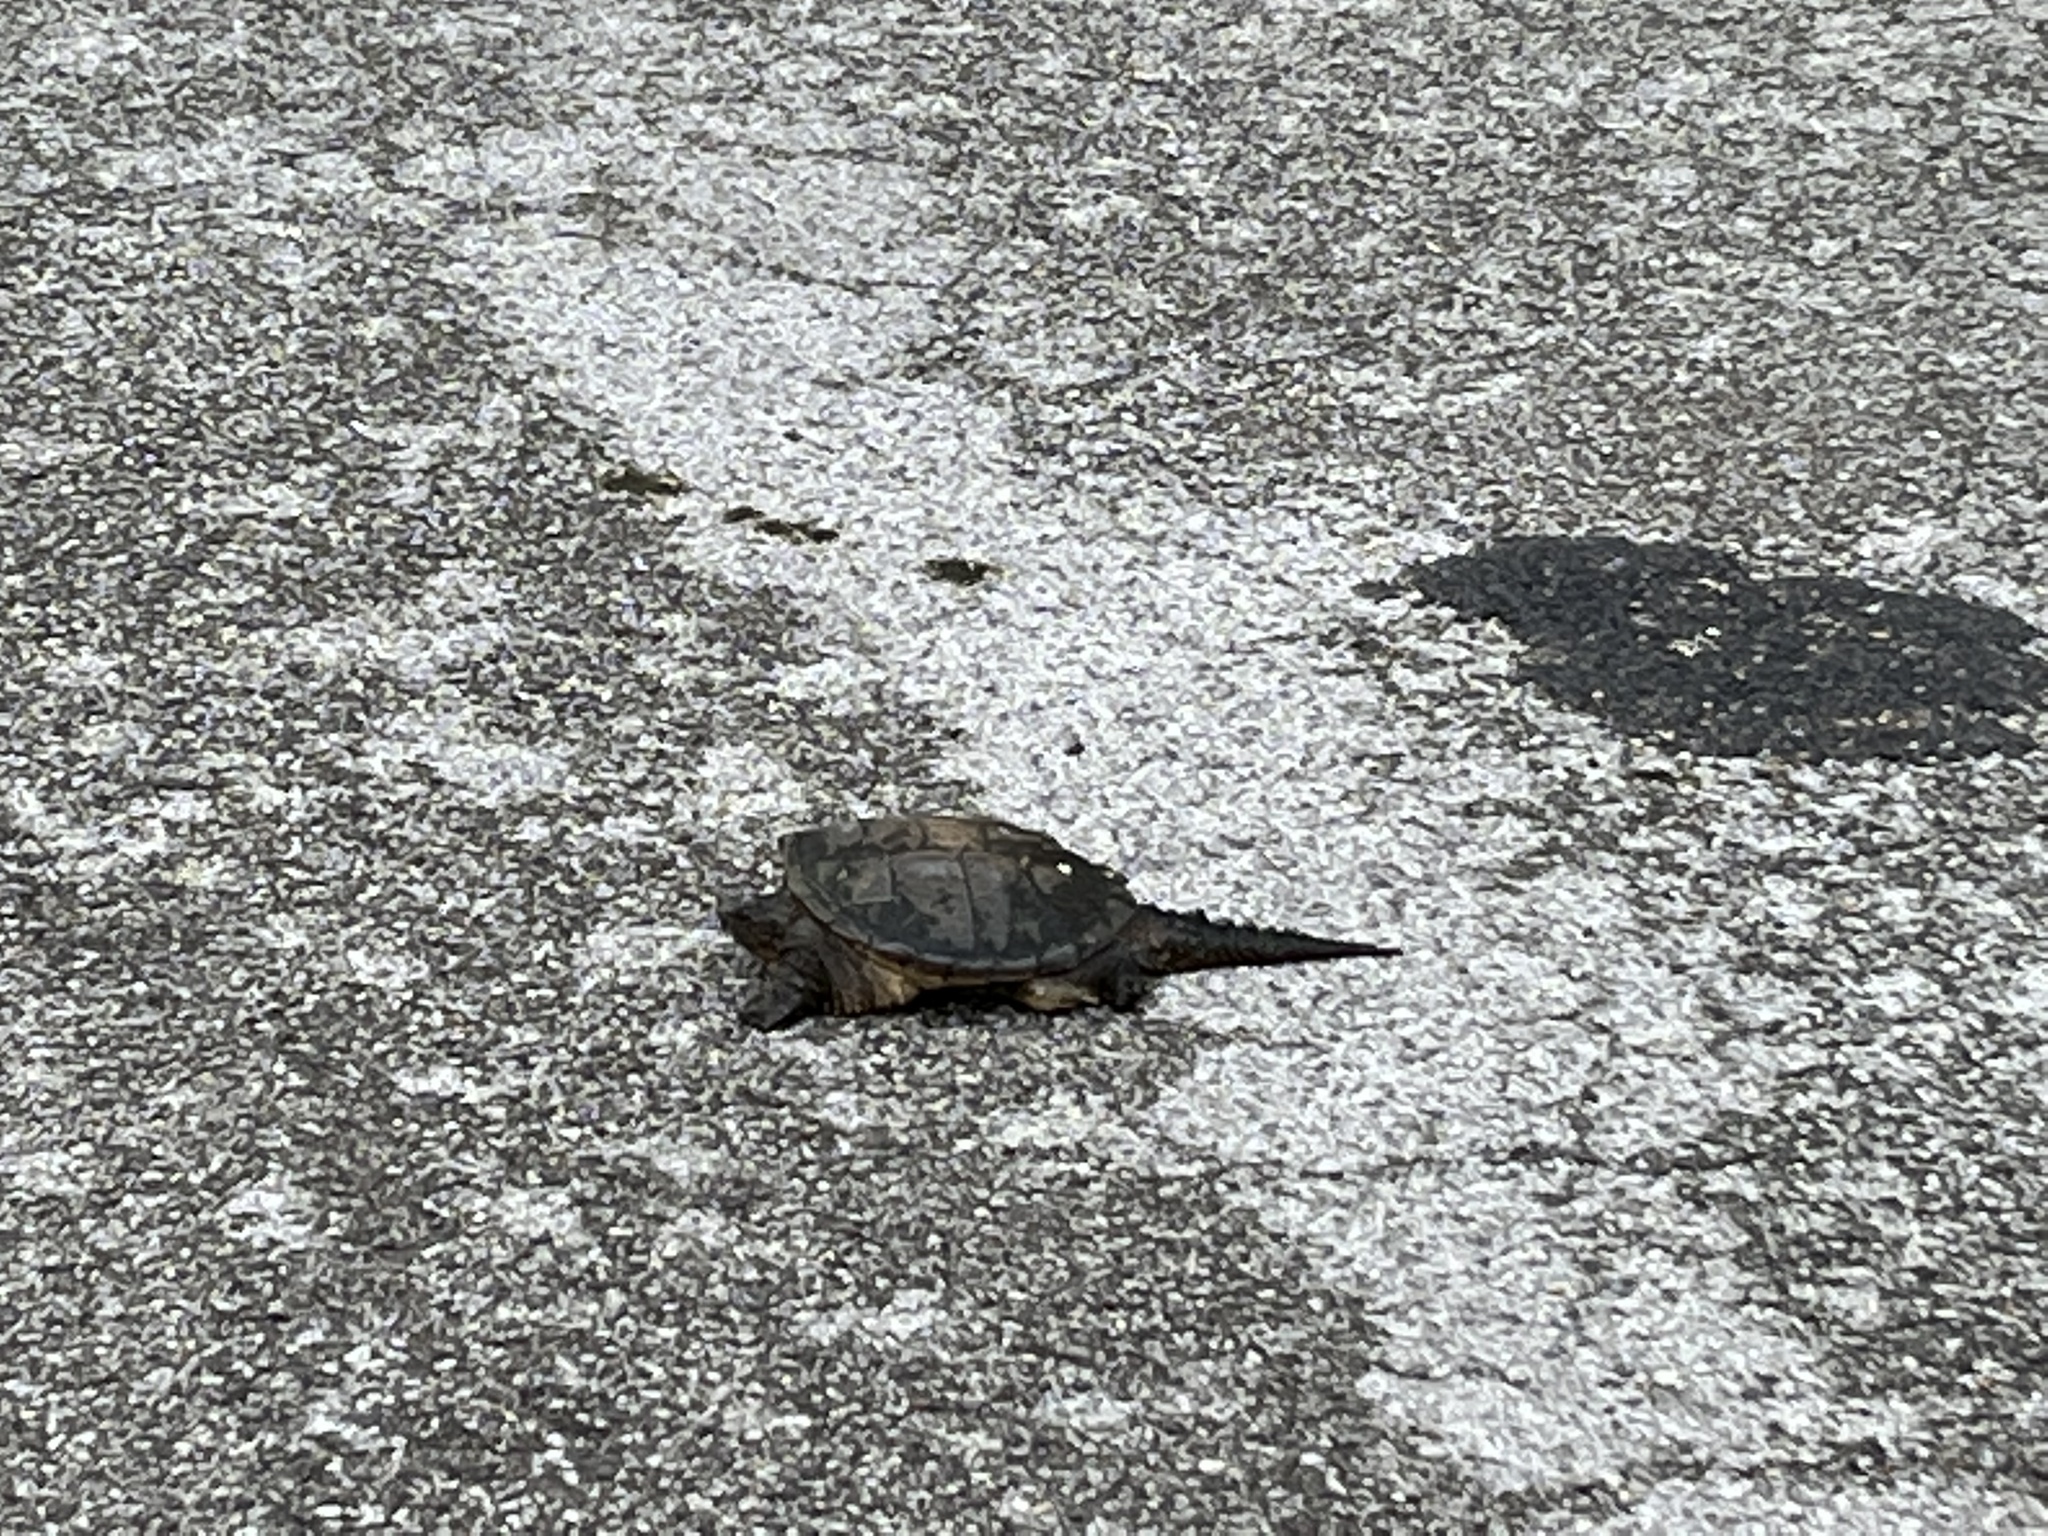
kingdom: Animalia
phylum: Chordata
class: Testudines
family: Chelydridae
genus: Chelydra
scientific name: Chelydra serpentina
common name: Common snapping turtle
